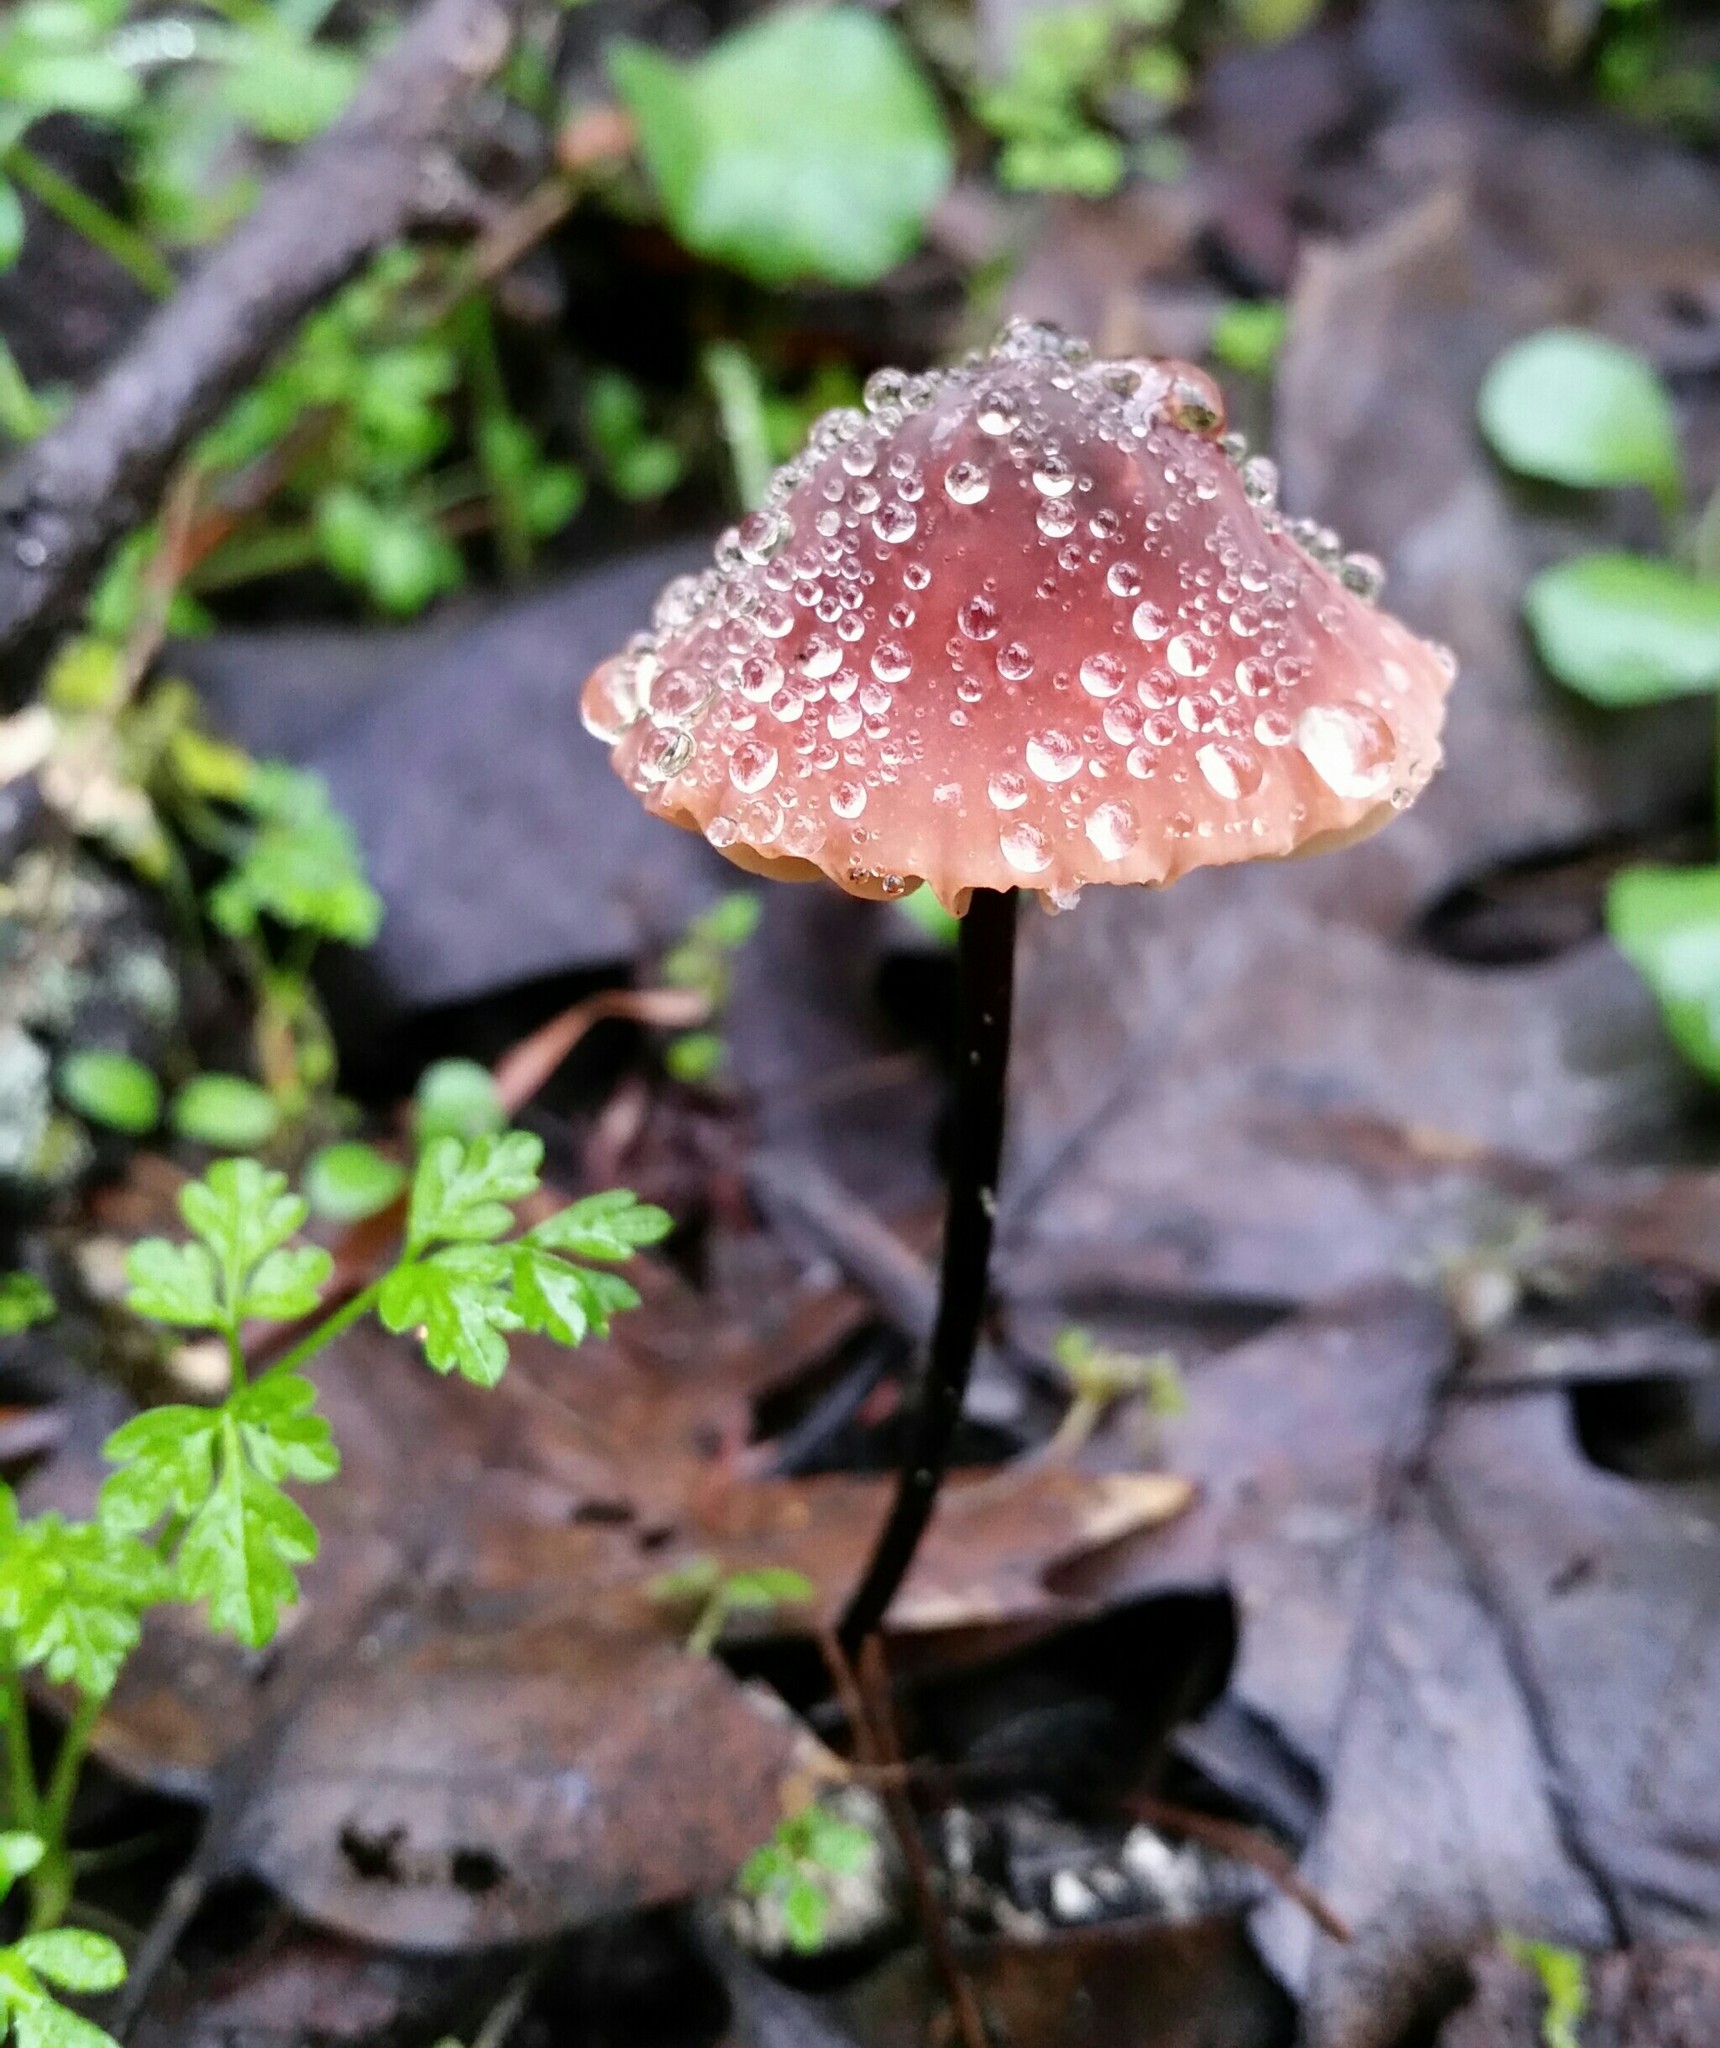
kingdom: Fungi
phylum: Basidiomycota
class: Agaricomycetes
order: Agaricales
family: Marasmiaceae
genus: Marasmius
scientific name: Marasmius plicatulus
